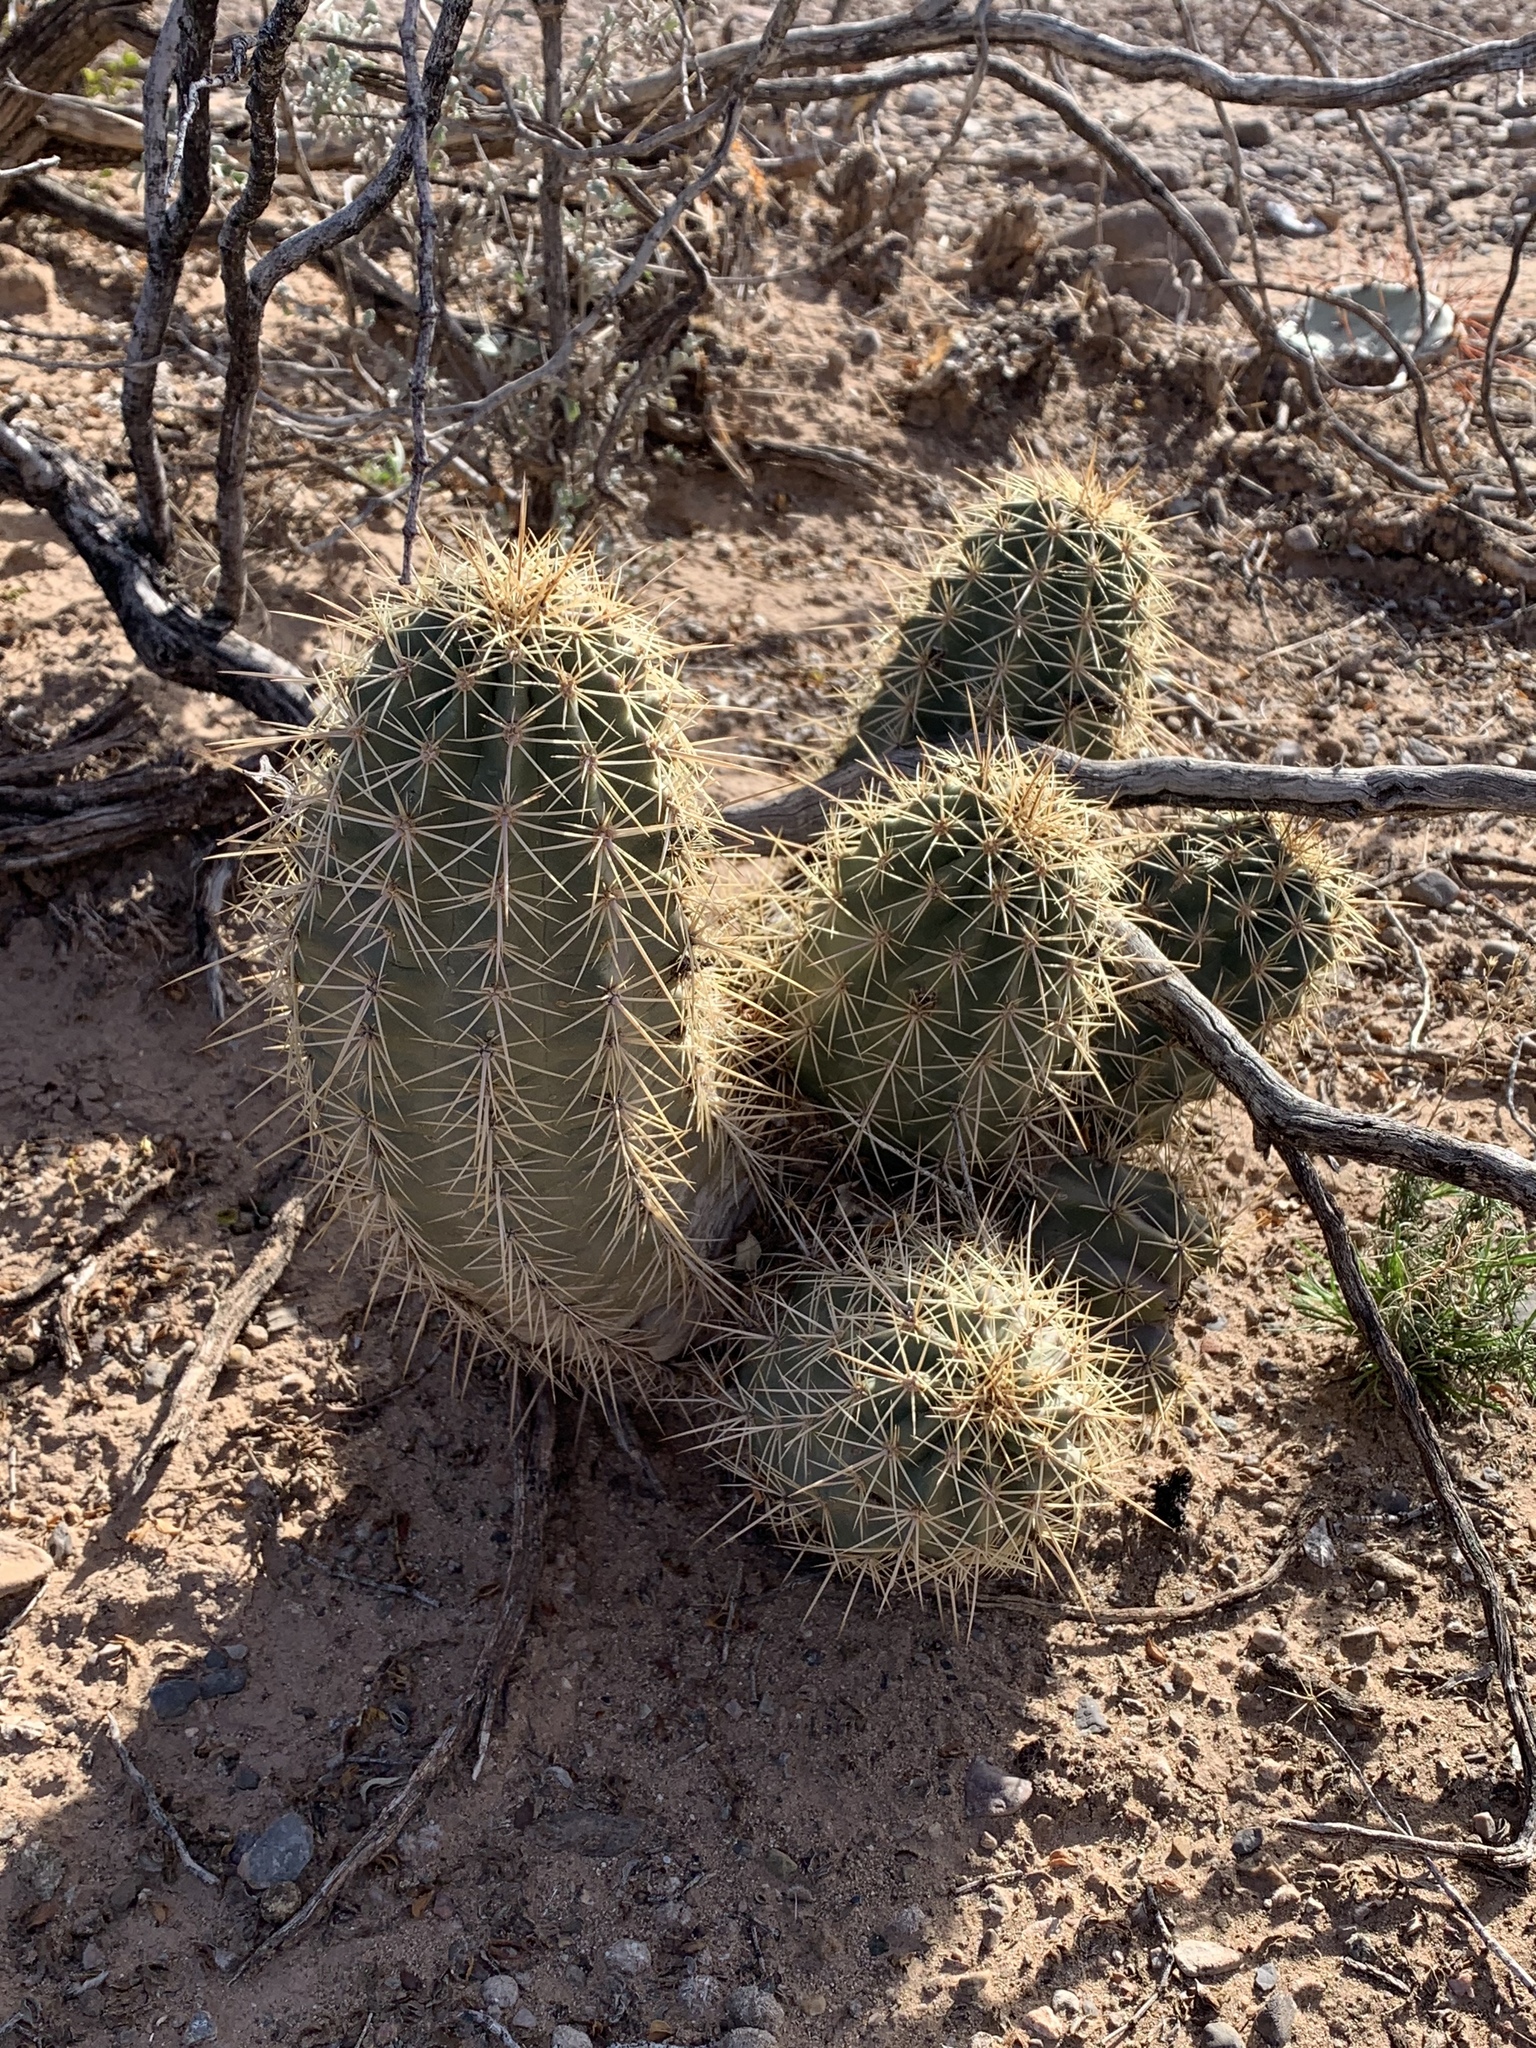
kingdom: Plantae
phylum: Tracheophyta
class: Magnoliopsida
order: Caryophyllales
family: Cactaceae
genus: Echinocereus
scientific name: Echinocereus coccineus
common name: Scarlet hedgehog cactus
